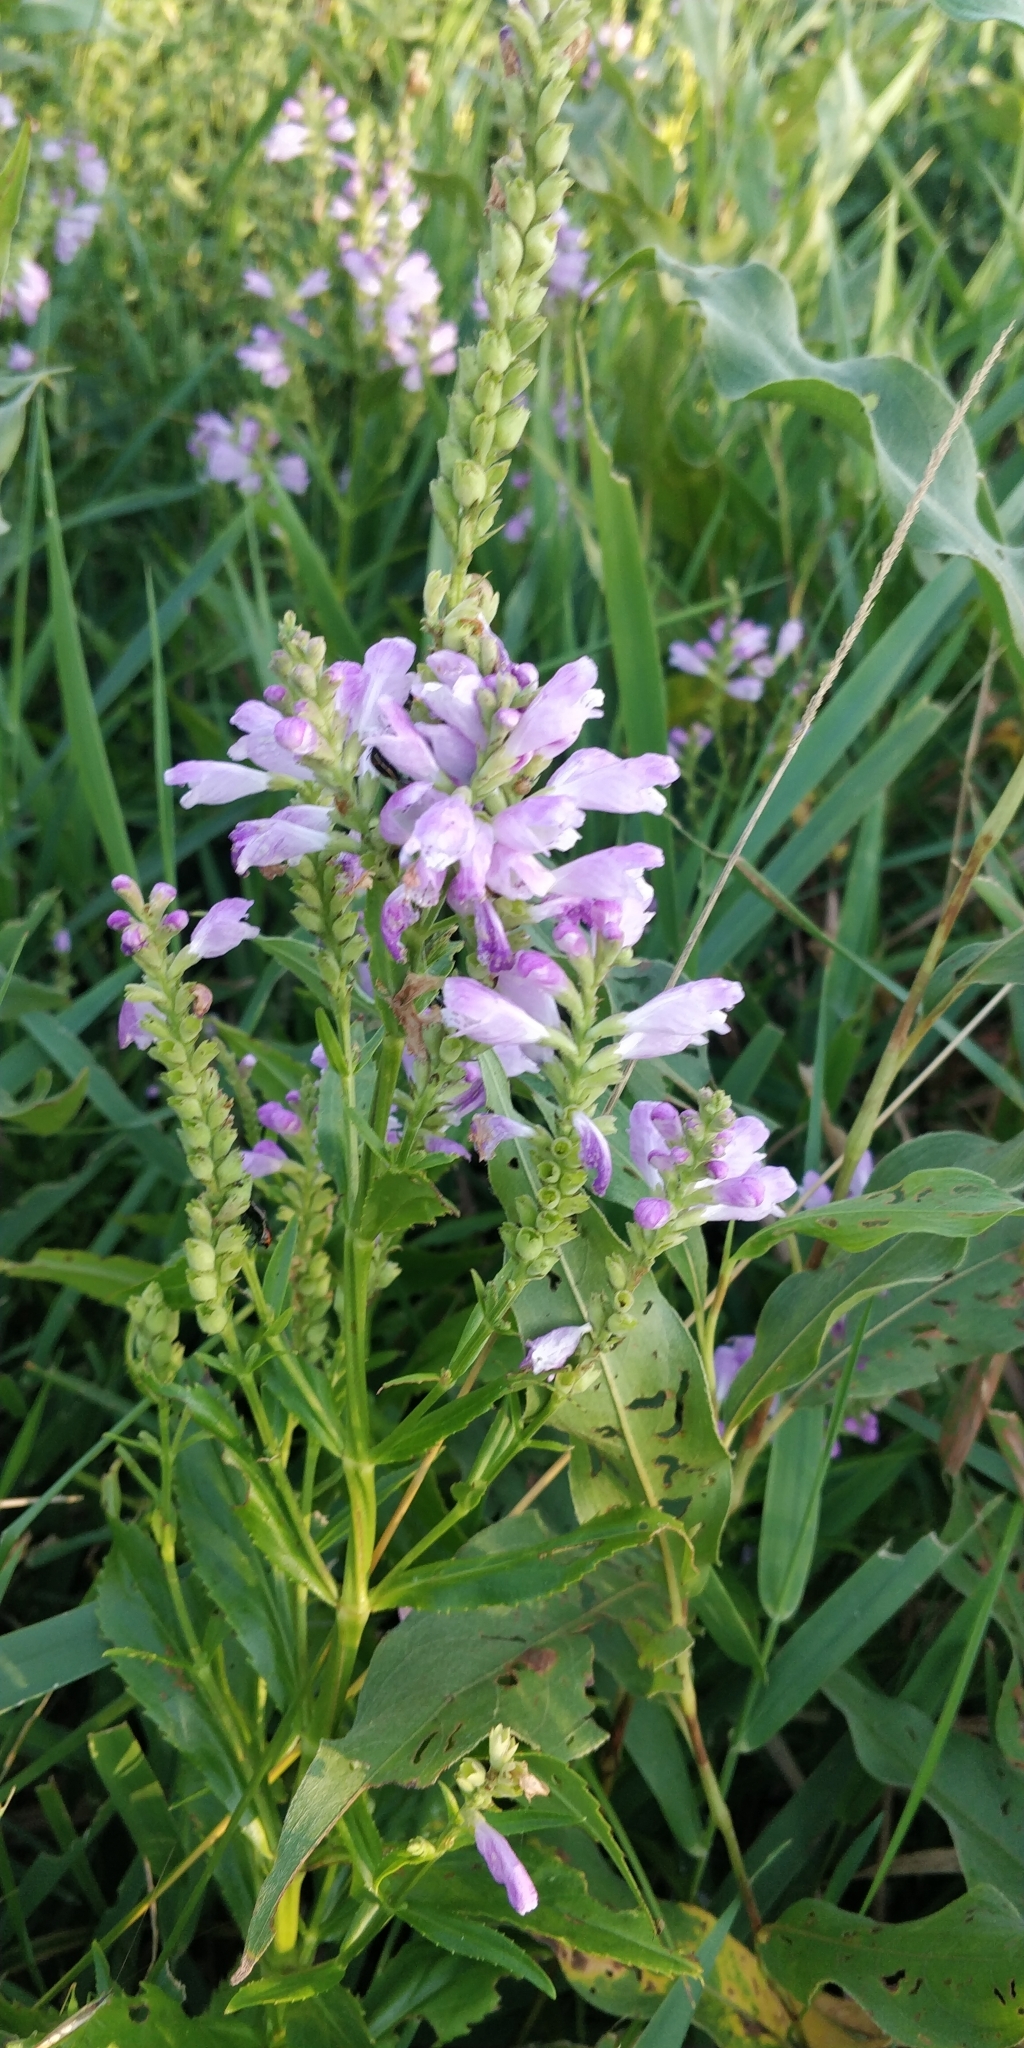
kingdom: Plantae
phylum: Tracheophyta
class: Magnoliopsida
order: Lamiales
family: Lamiaceae
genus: Physostegia
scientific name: Physostegia virginiana
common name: Obedient-plant
